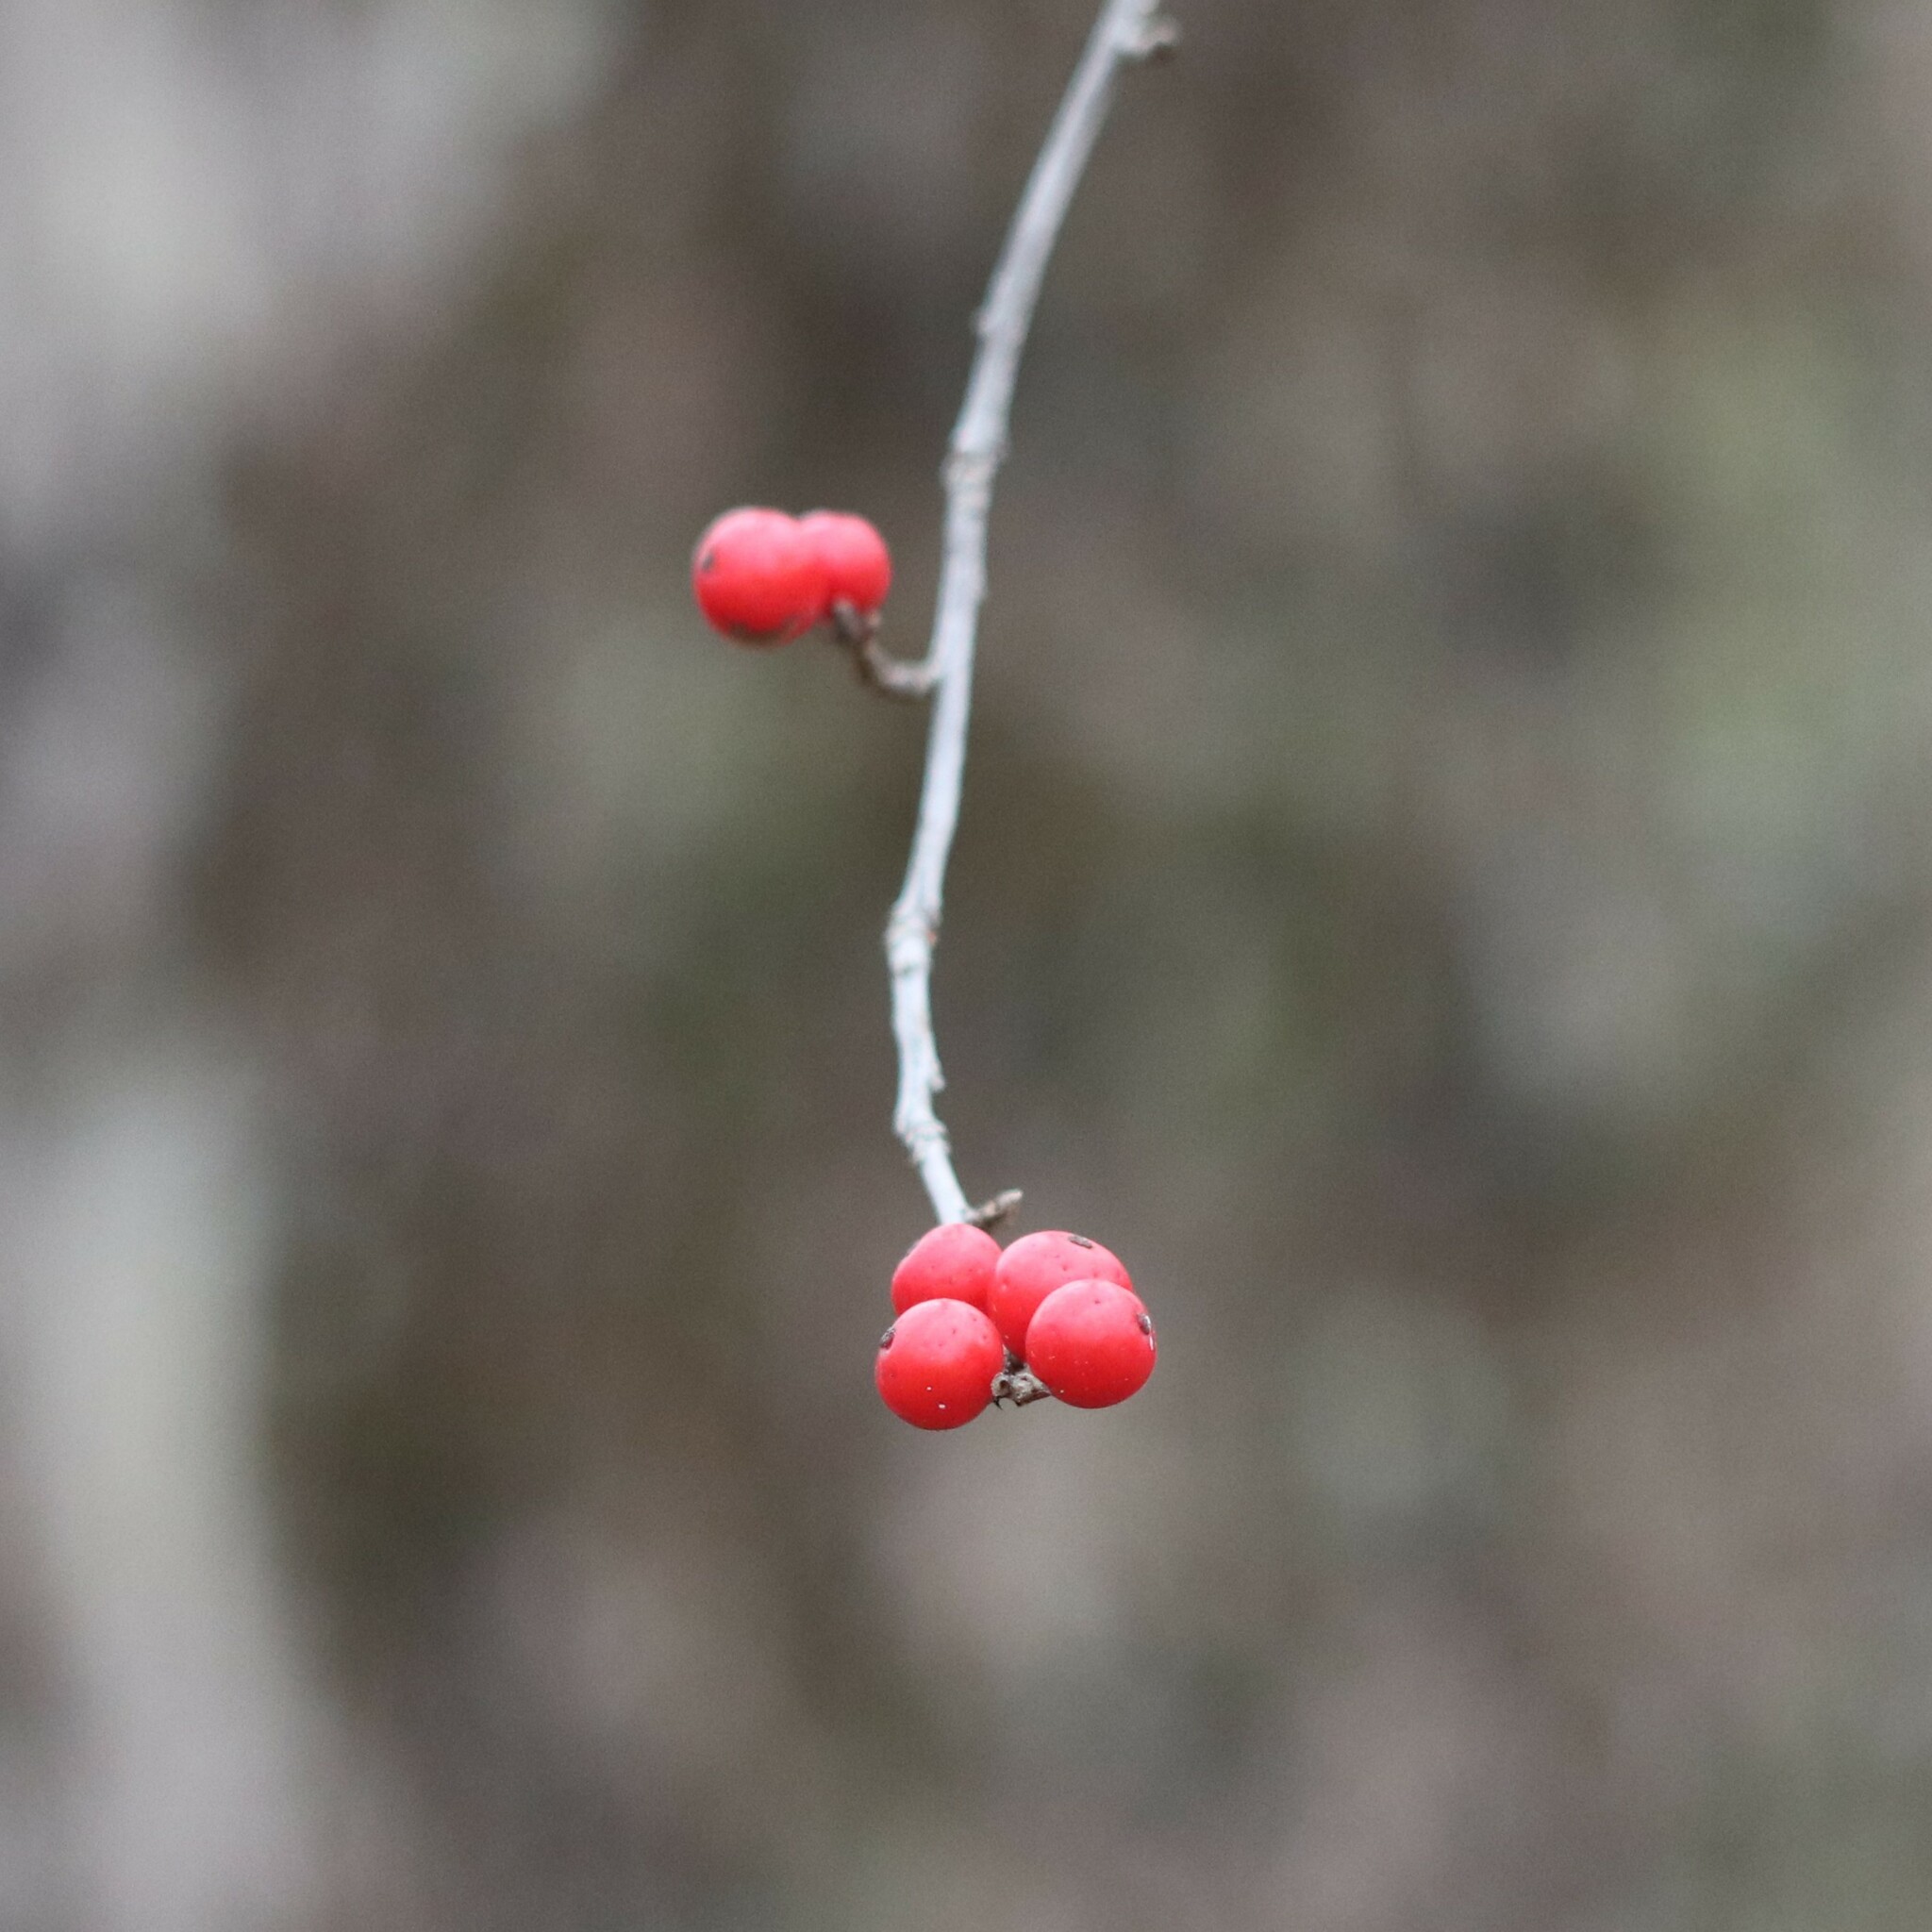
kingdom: Plantae
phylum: Tracheophyta
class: Magnoliopsida
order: Aquifoliales
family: Aquifoliaceae
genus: Ilex
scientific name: Ilex verticillata
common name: Virginia winterberry
